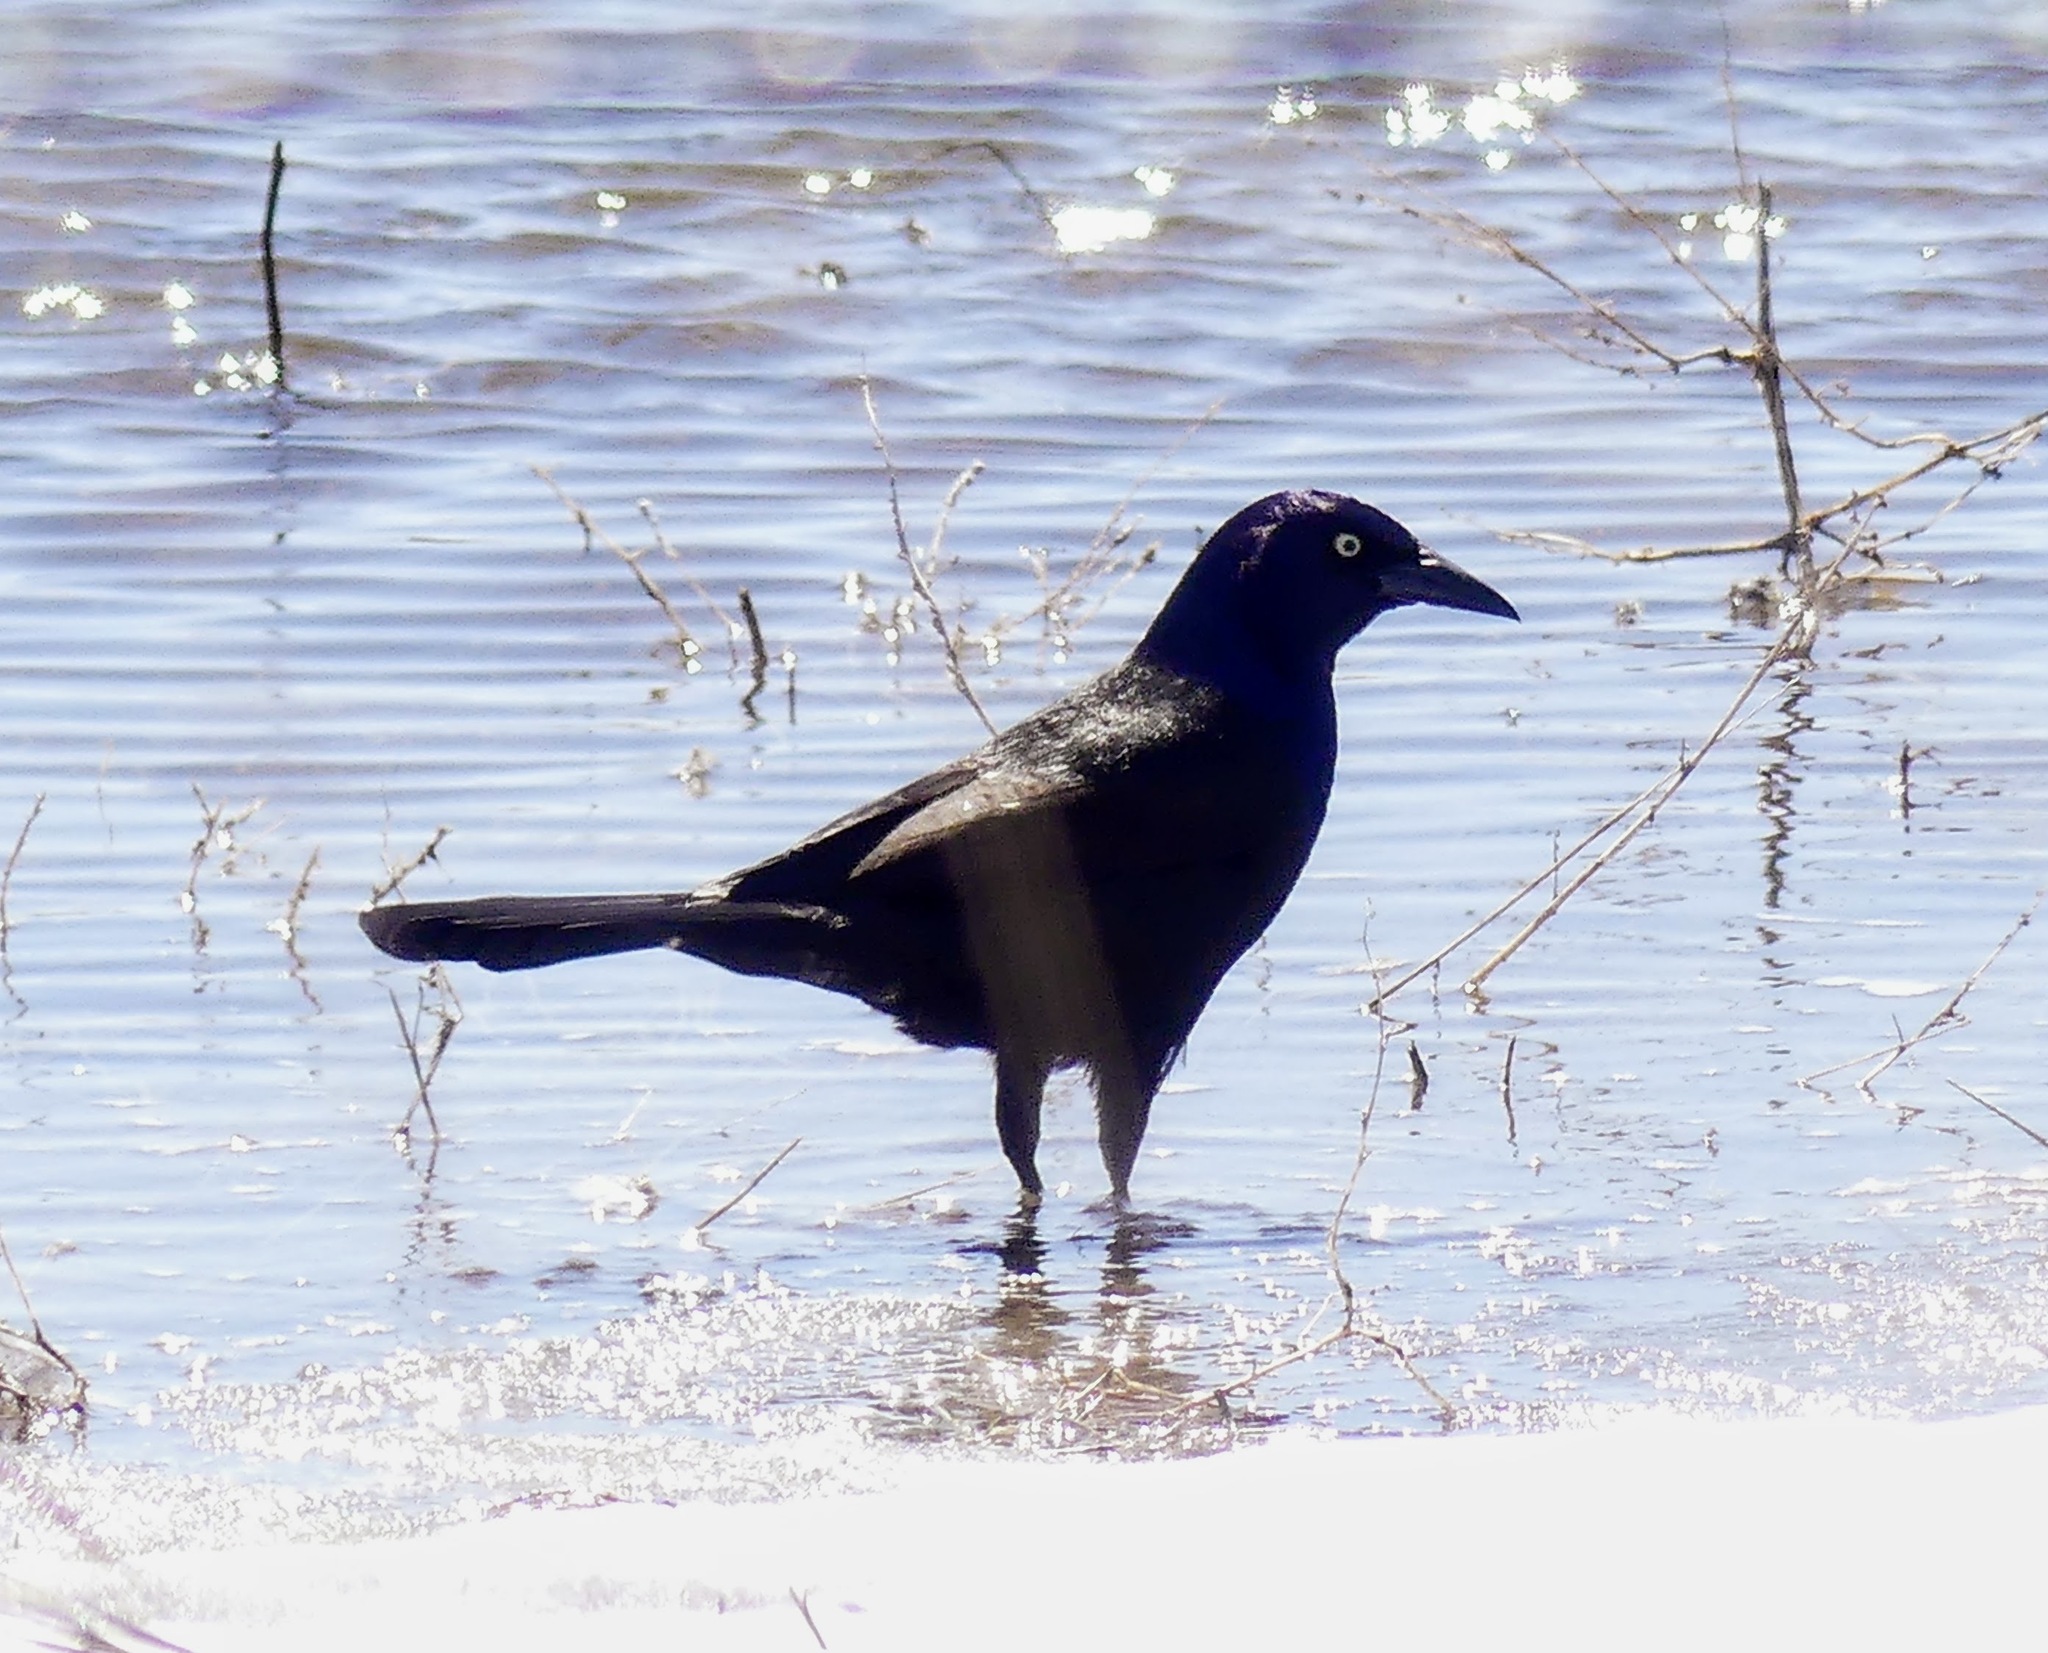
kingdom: Animalia
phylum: Chordata
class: Aves
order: Passeriformes
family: Icteridae
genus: Quiscalus
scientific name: Quiscalus quiscula
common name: Common grackle
